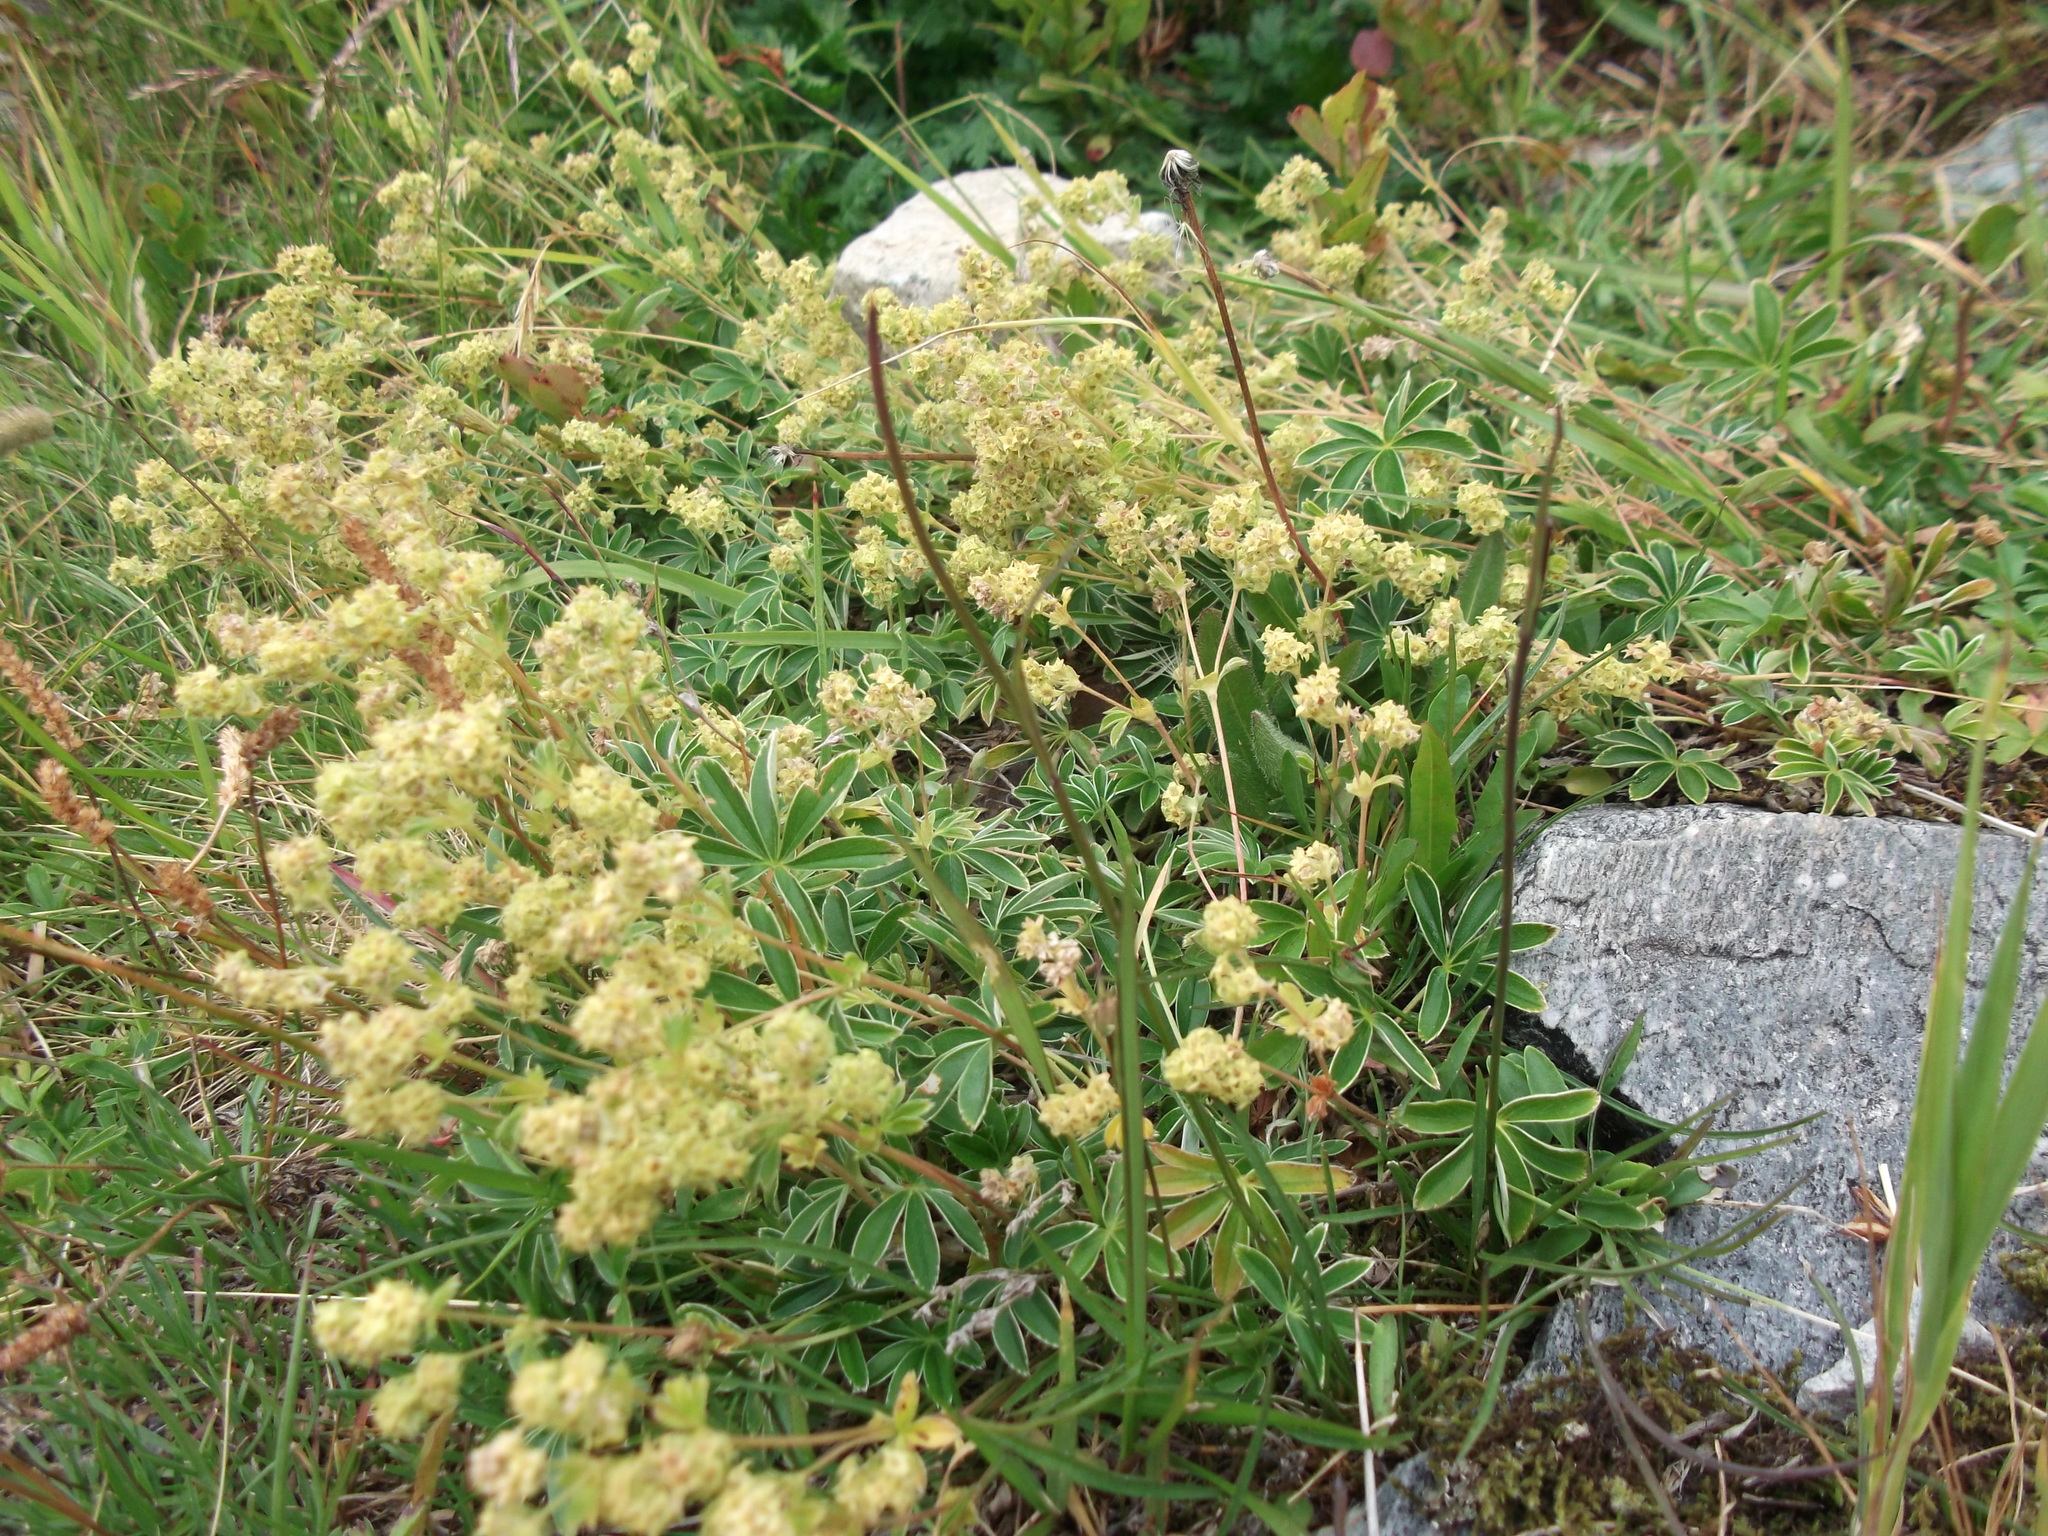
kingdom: Plantae
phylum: Tracheophyta
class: Magnoliopsida
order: Rosales
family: Rosaceae
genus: Alchemilla
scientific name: Alchemilla alpina
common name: Alpine lady's-mantle
